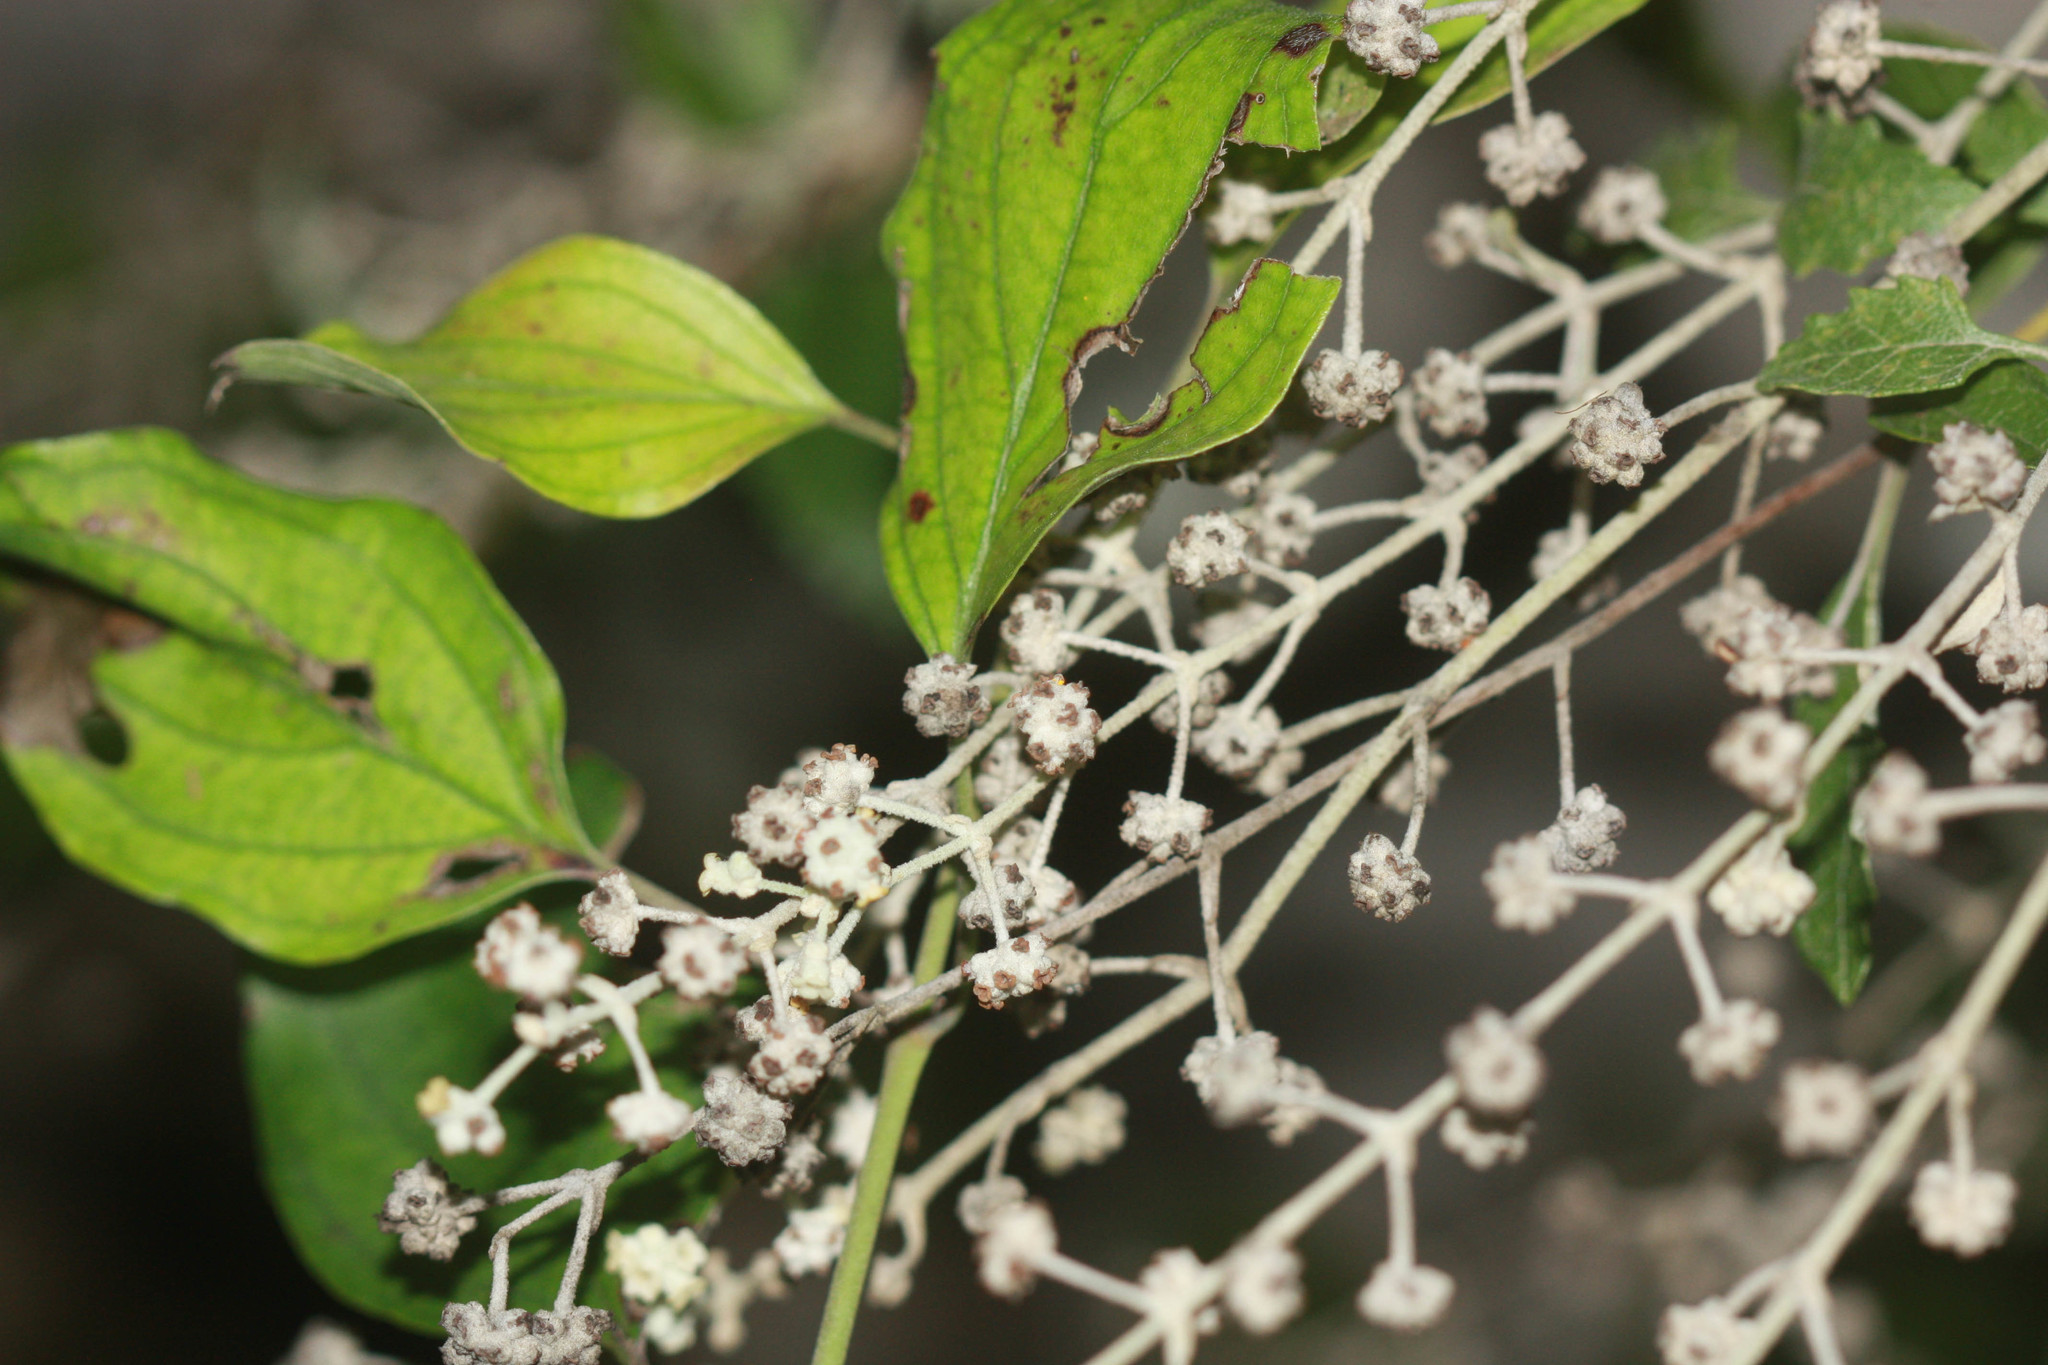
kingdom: Plantae
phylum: Tracheophyta
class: Magnoliopsida
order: Lamiales
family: Scrophulariaceae
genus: Buddleja
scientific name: Buddleja racemosa
